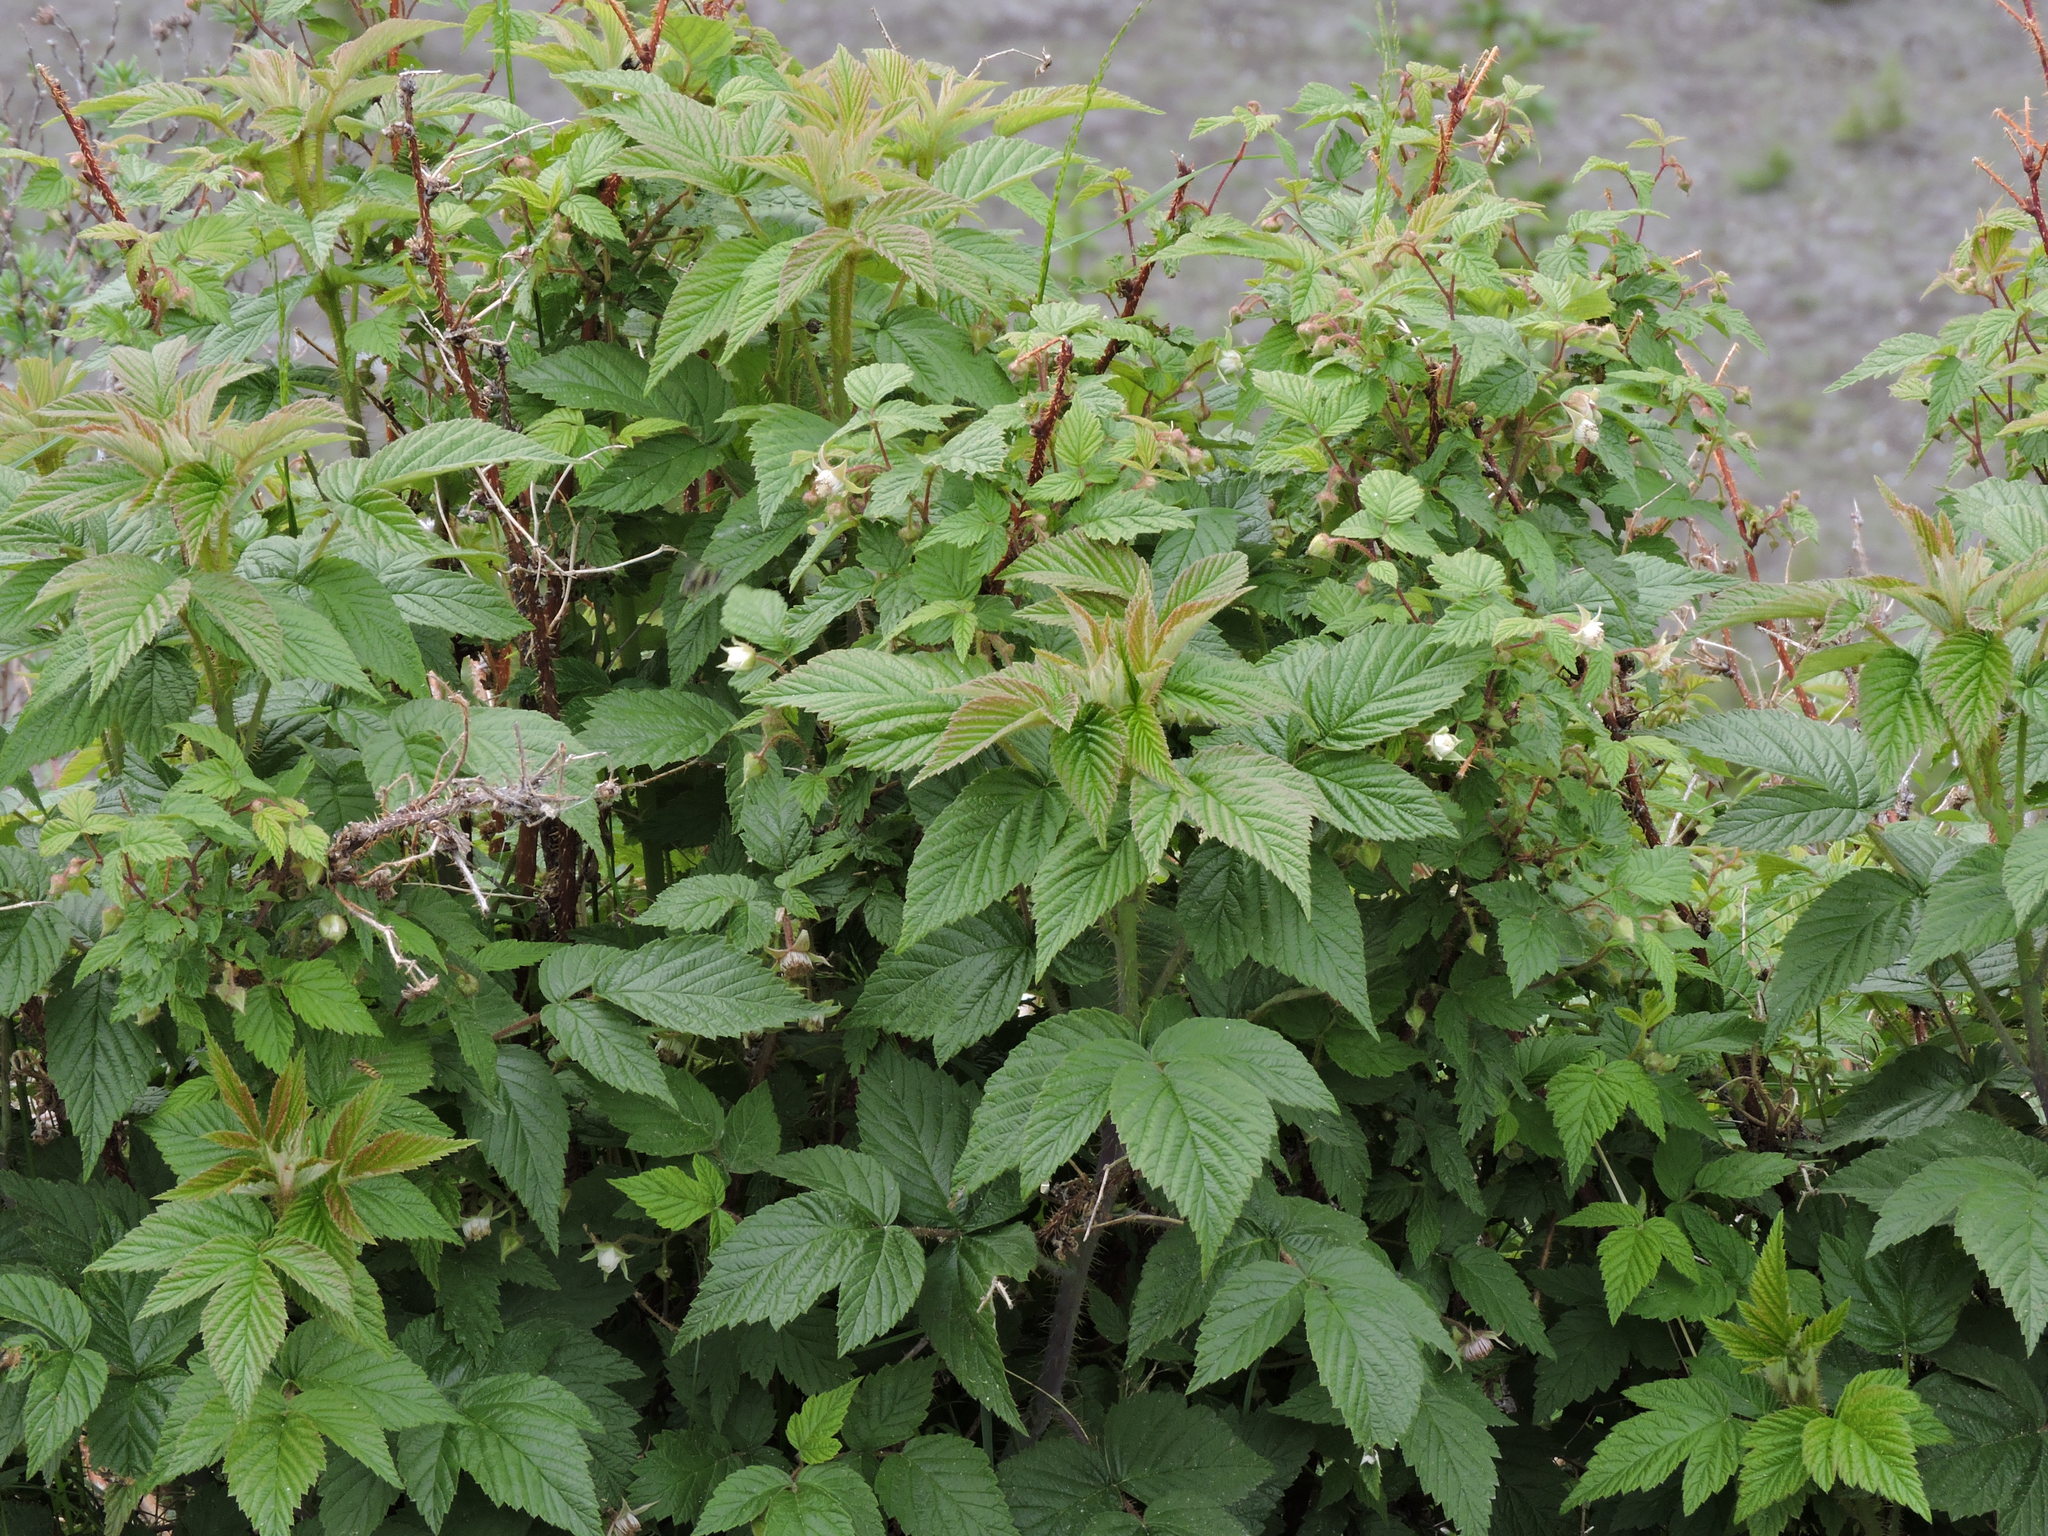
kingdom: Plantae
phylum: Tracheophyta
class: Magnoliopsida
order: Rosales
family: Rosaceae
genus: Rubus
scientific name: Rubus idaeus
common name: Raspberry
